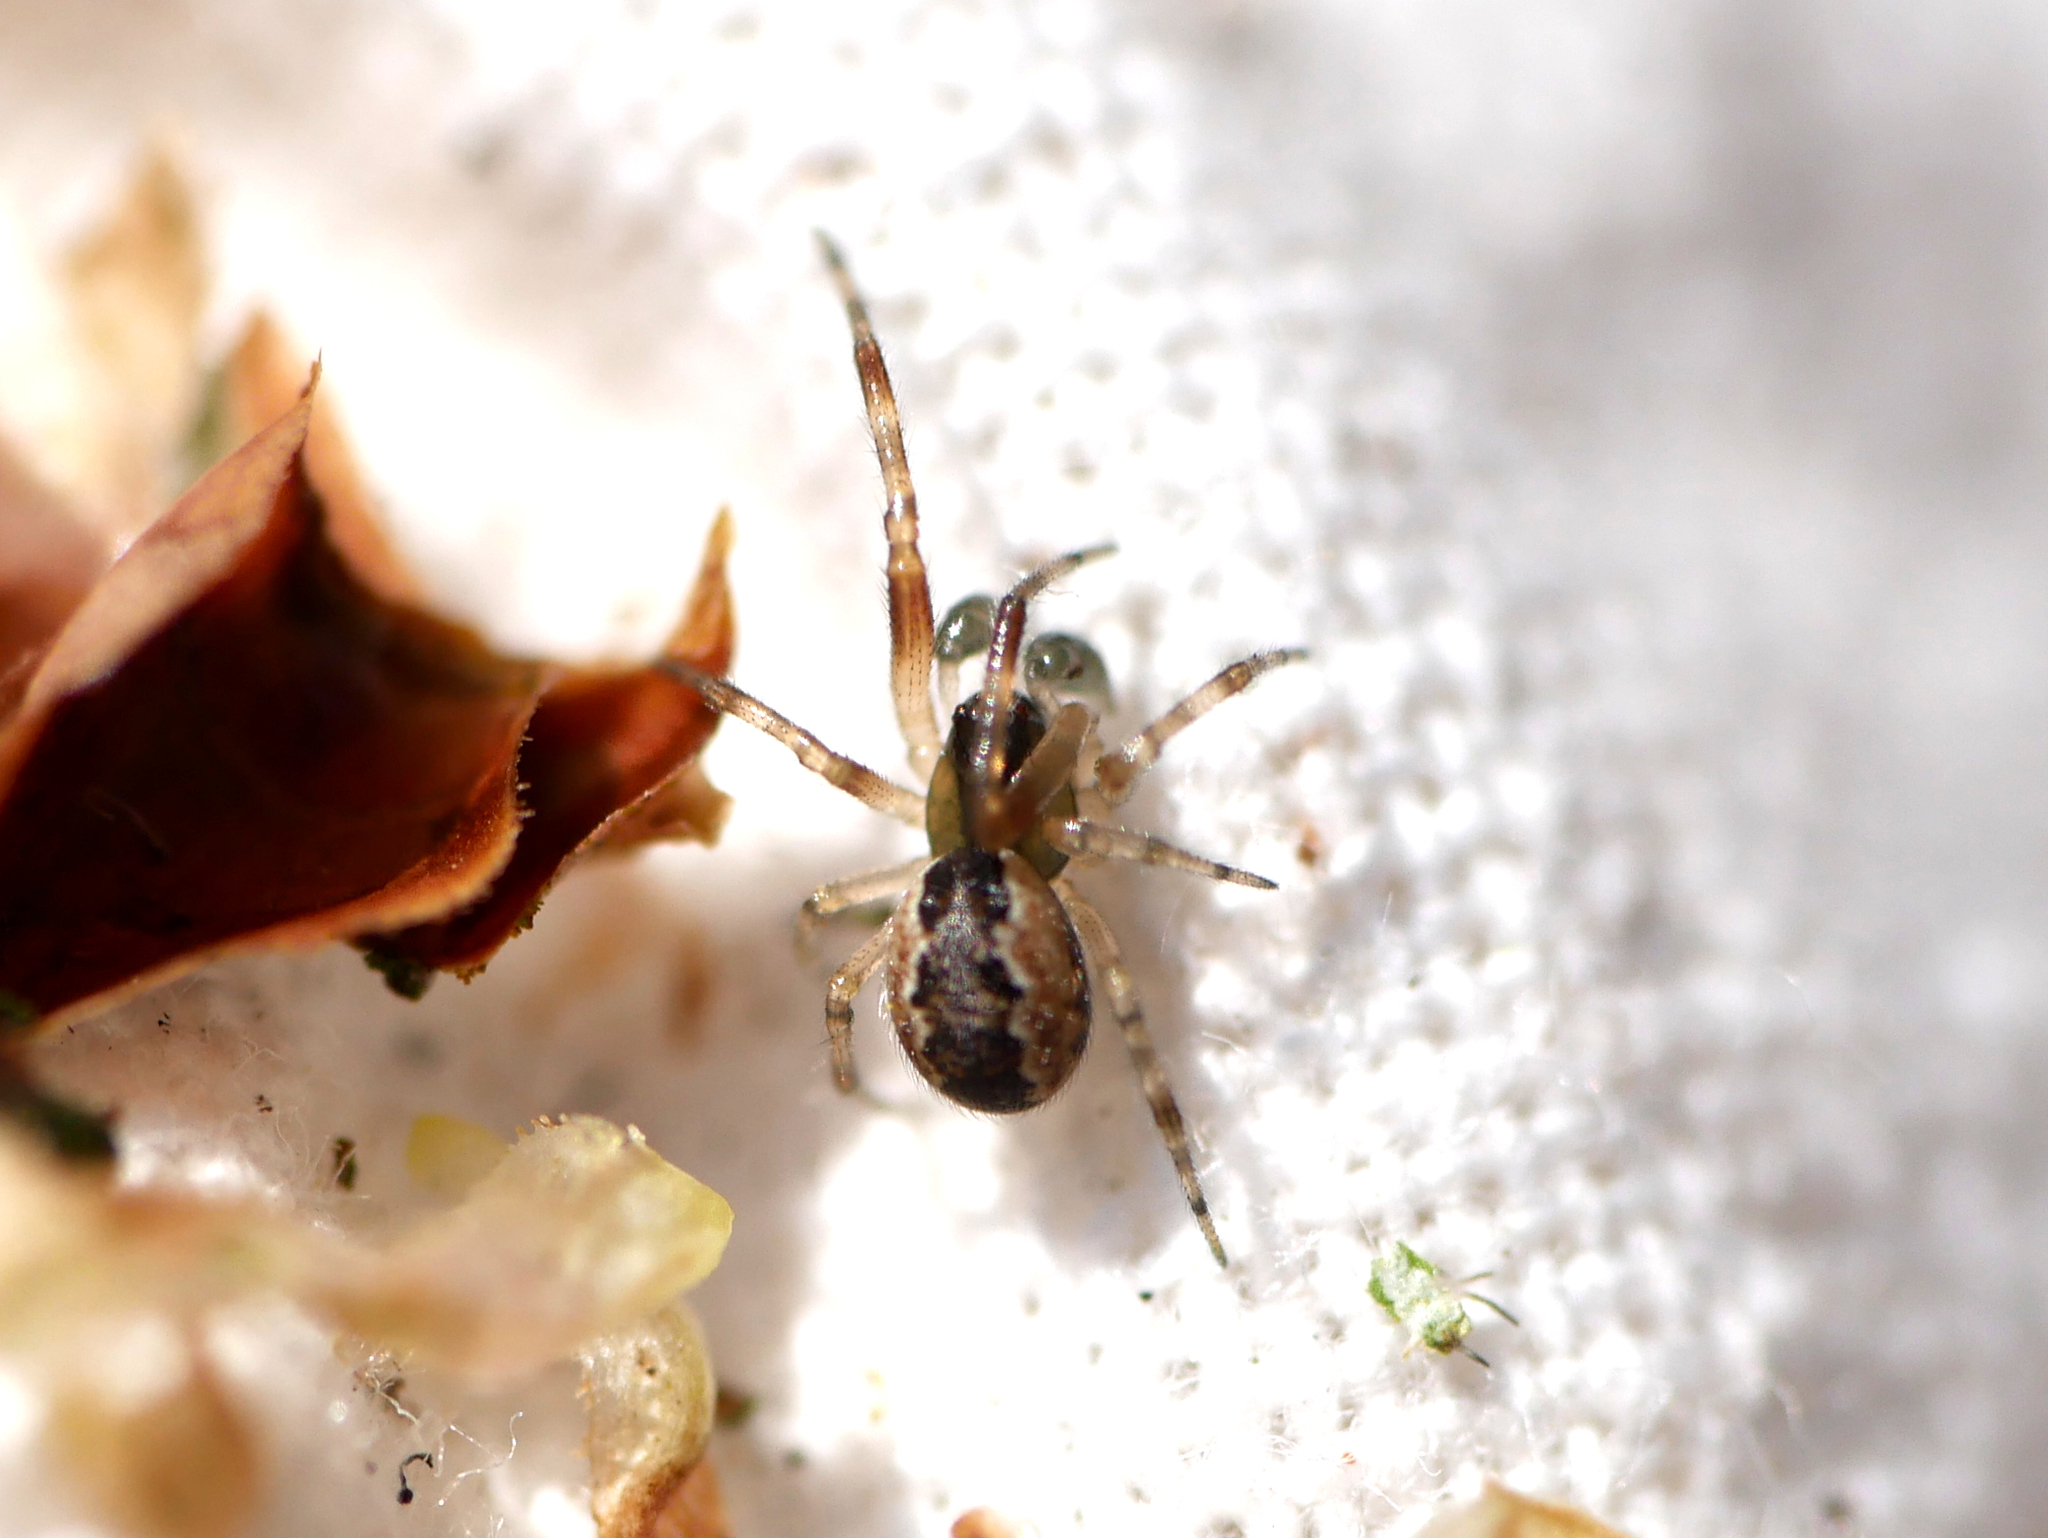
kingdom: Animalia
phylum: Arthropoda
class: Arachnida
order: Araneae
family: Theridiidae
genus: Anelosimus
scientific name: Anelosimus vittatus
